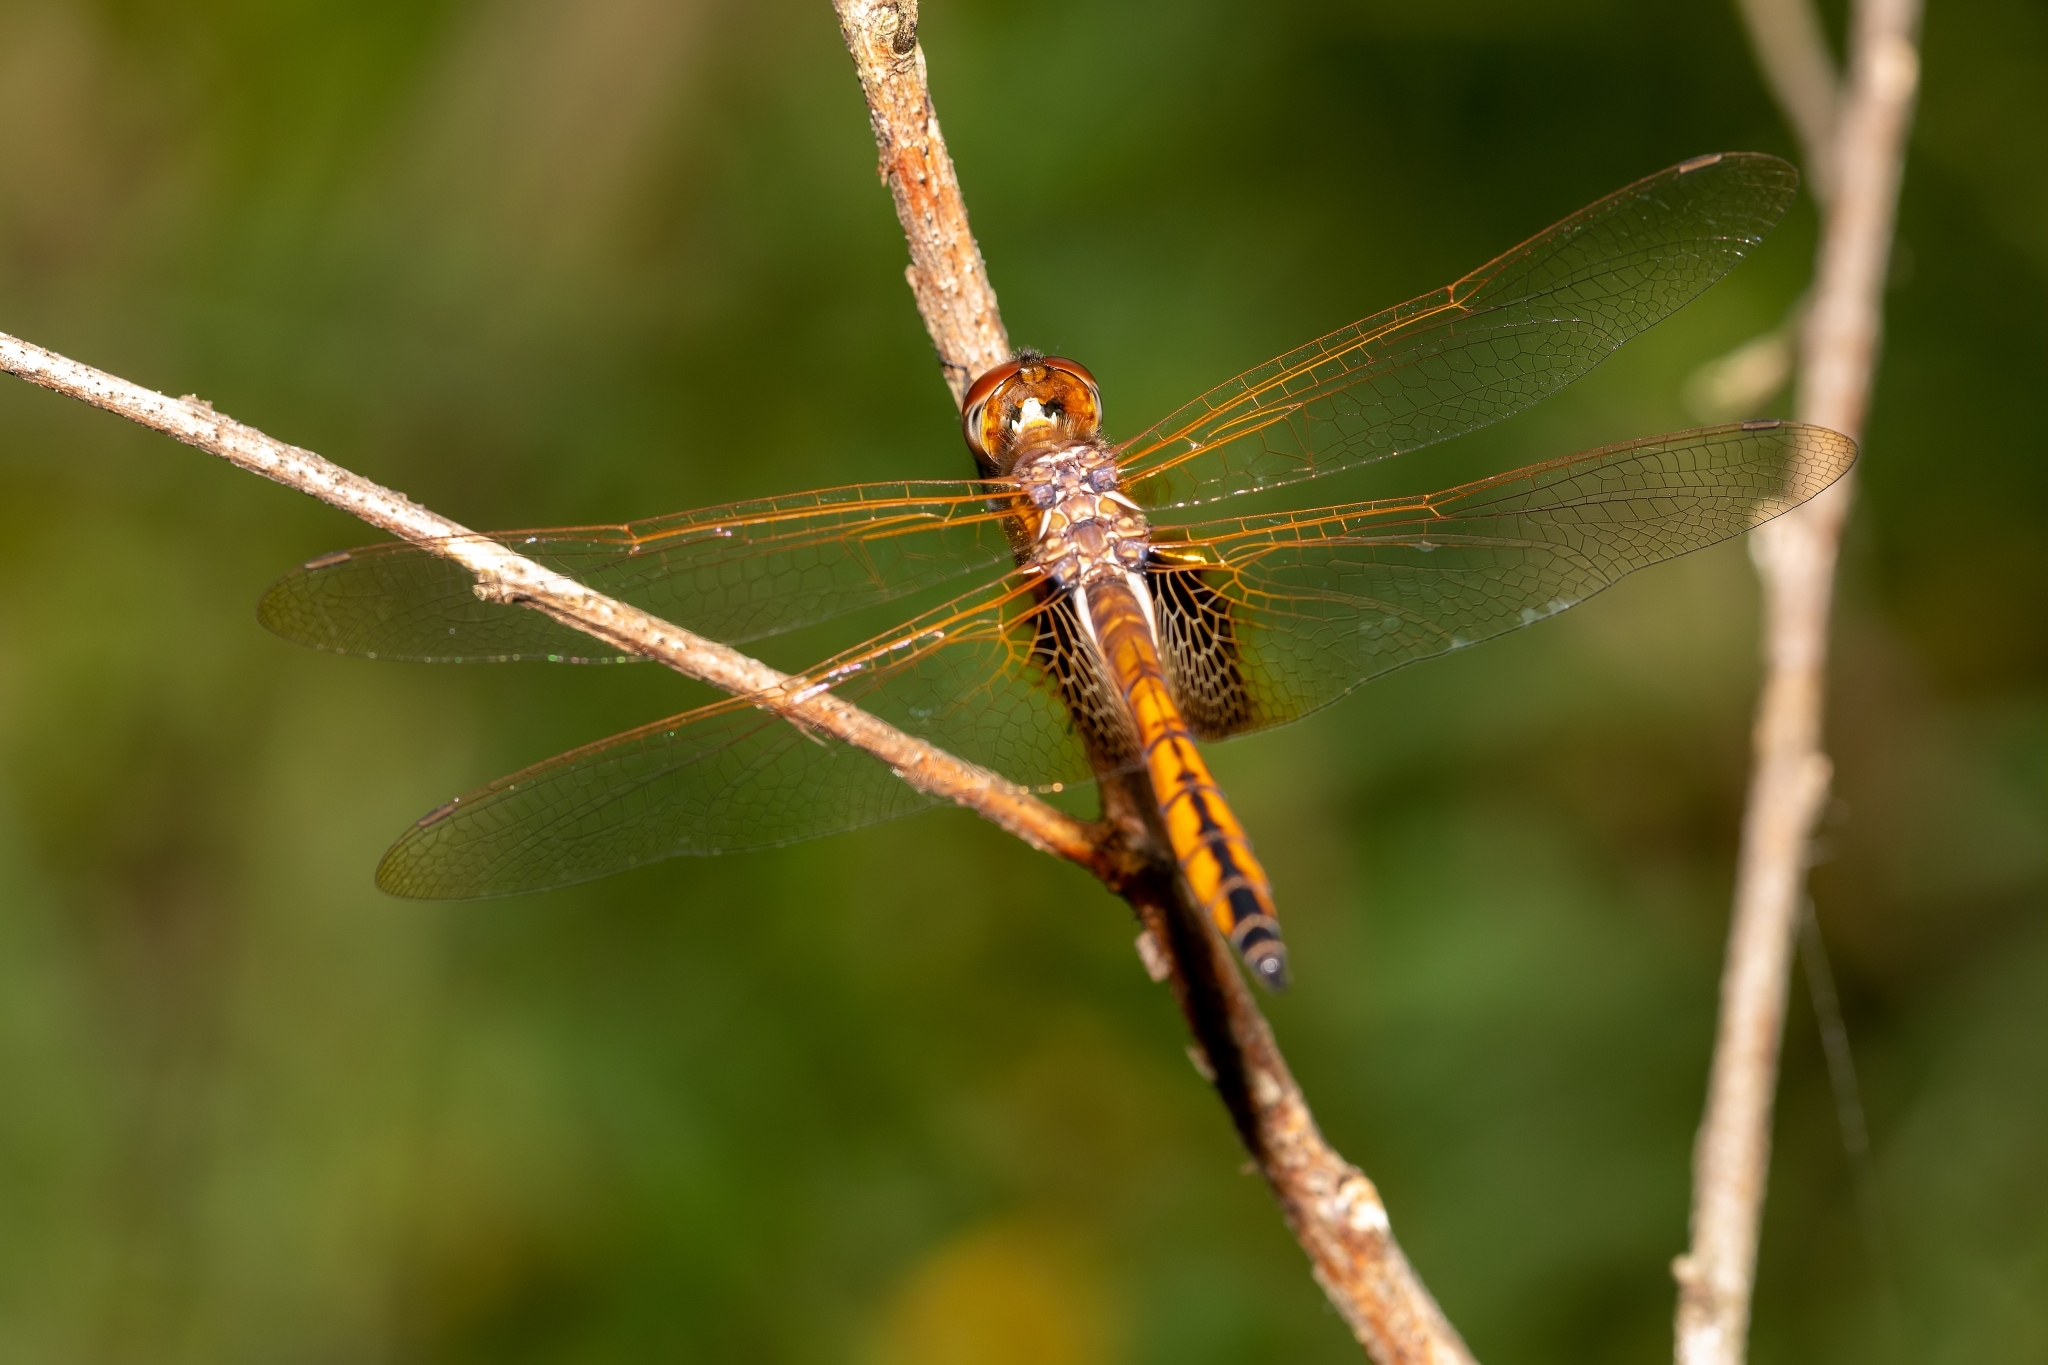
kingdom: Animalia
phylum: Arthropoda
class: Insecta
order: Odonata
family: Libellulidae
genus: Miathyria
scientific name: Miathyria marcella
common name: Hyacinth glider
